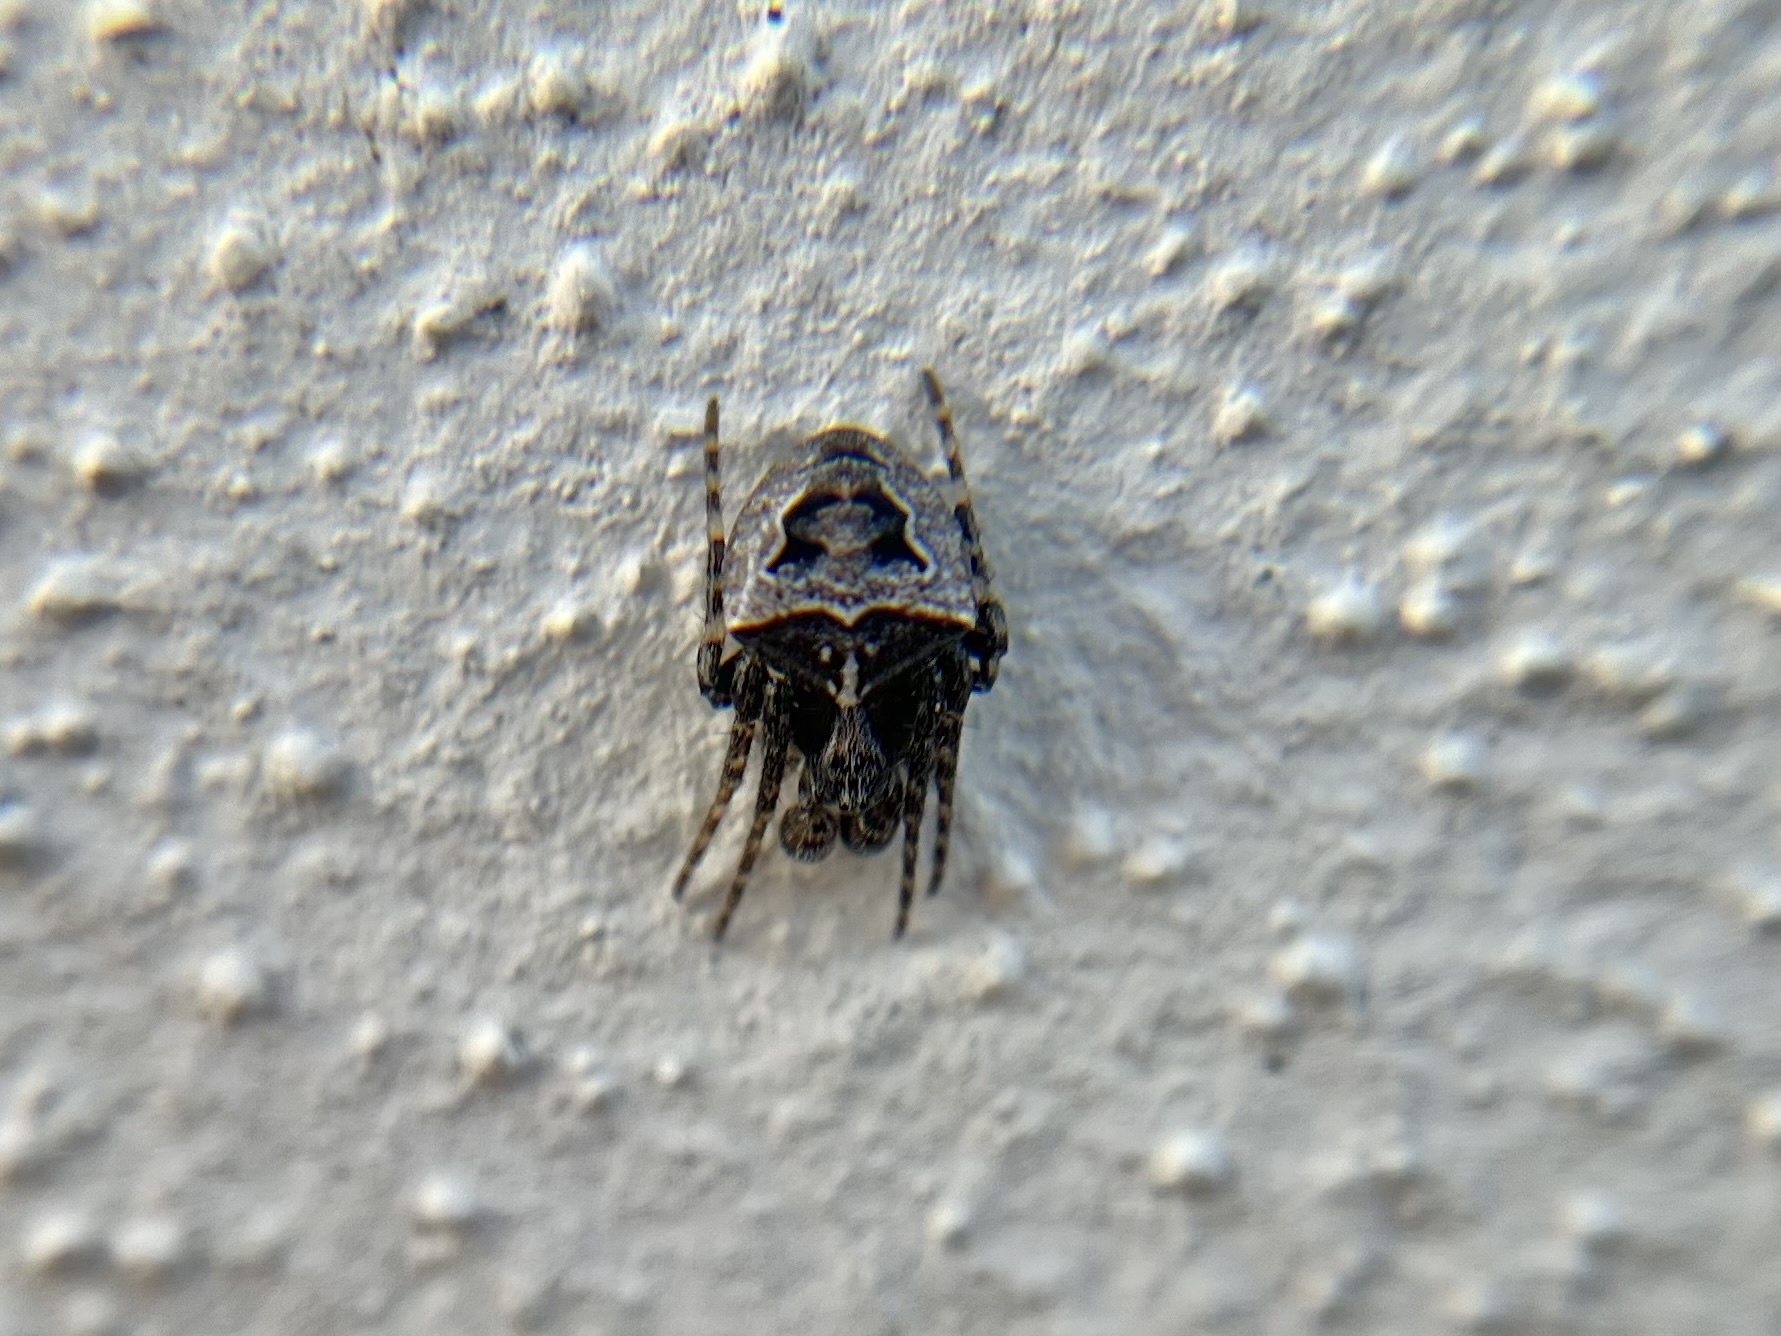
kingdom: Animalia
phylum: Arthropoda
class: Arachnida
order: Araneae
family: Araneidae
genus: Gibbaranea
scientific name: Gibbaranea bituberculata
